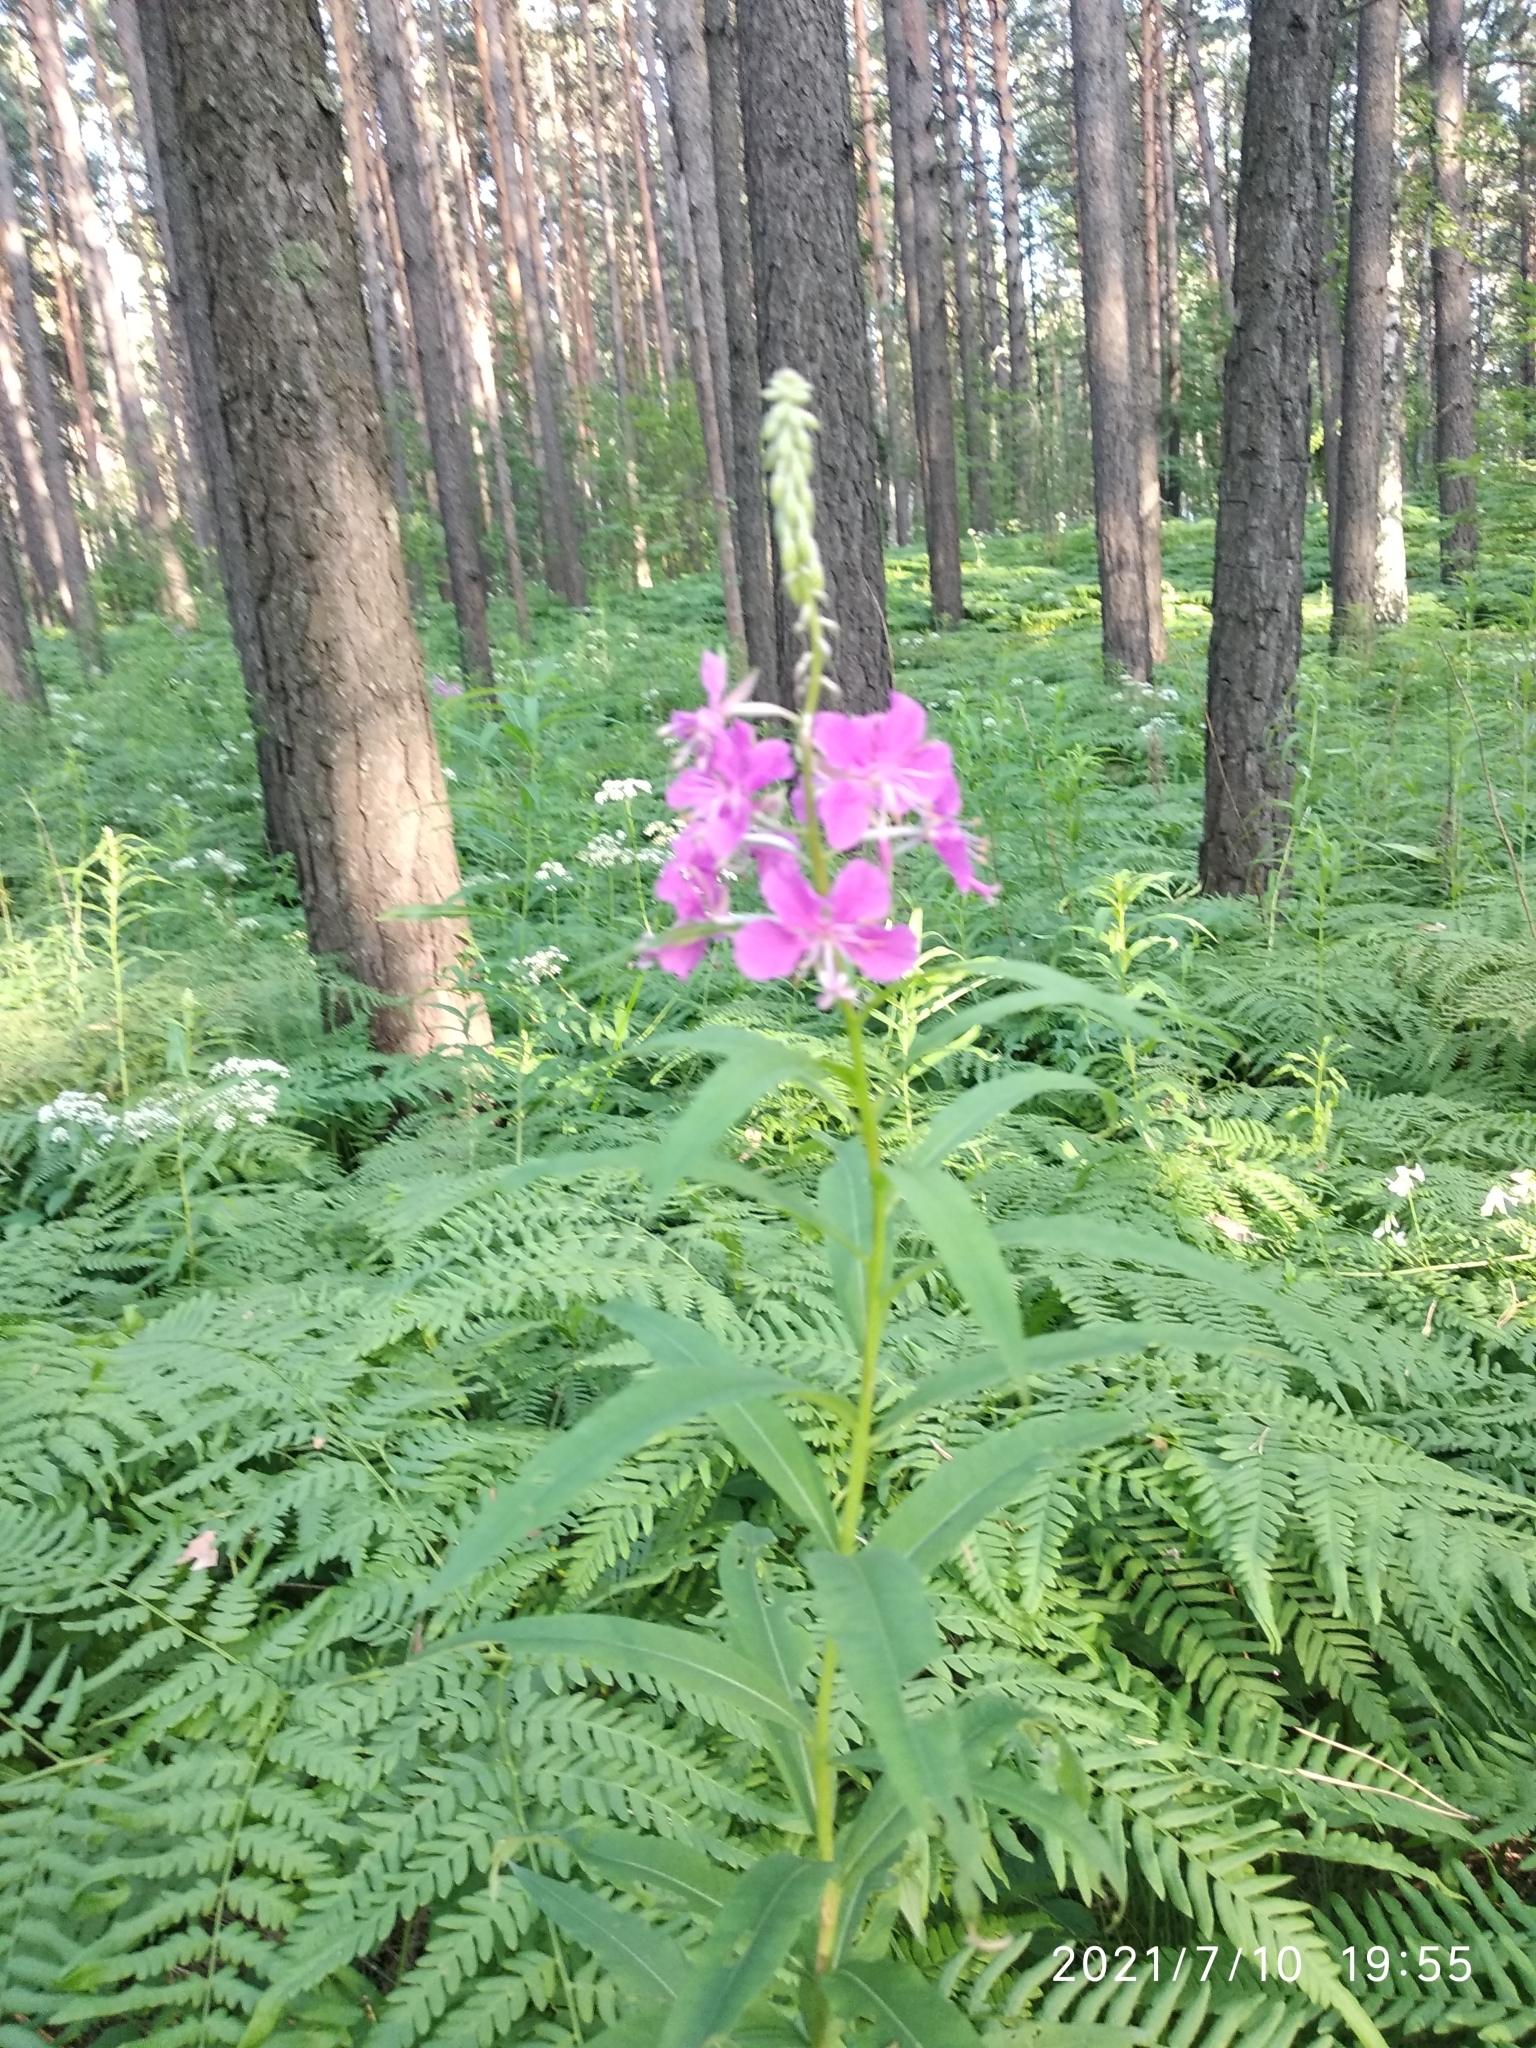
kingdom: Plantae
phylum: Tracheophyta
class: Magnoliopsida
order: Myrtales
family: Onagraceae
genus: Chamaenerion
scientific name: Chamaenerion angustifolium
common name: Fireweed
